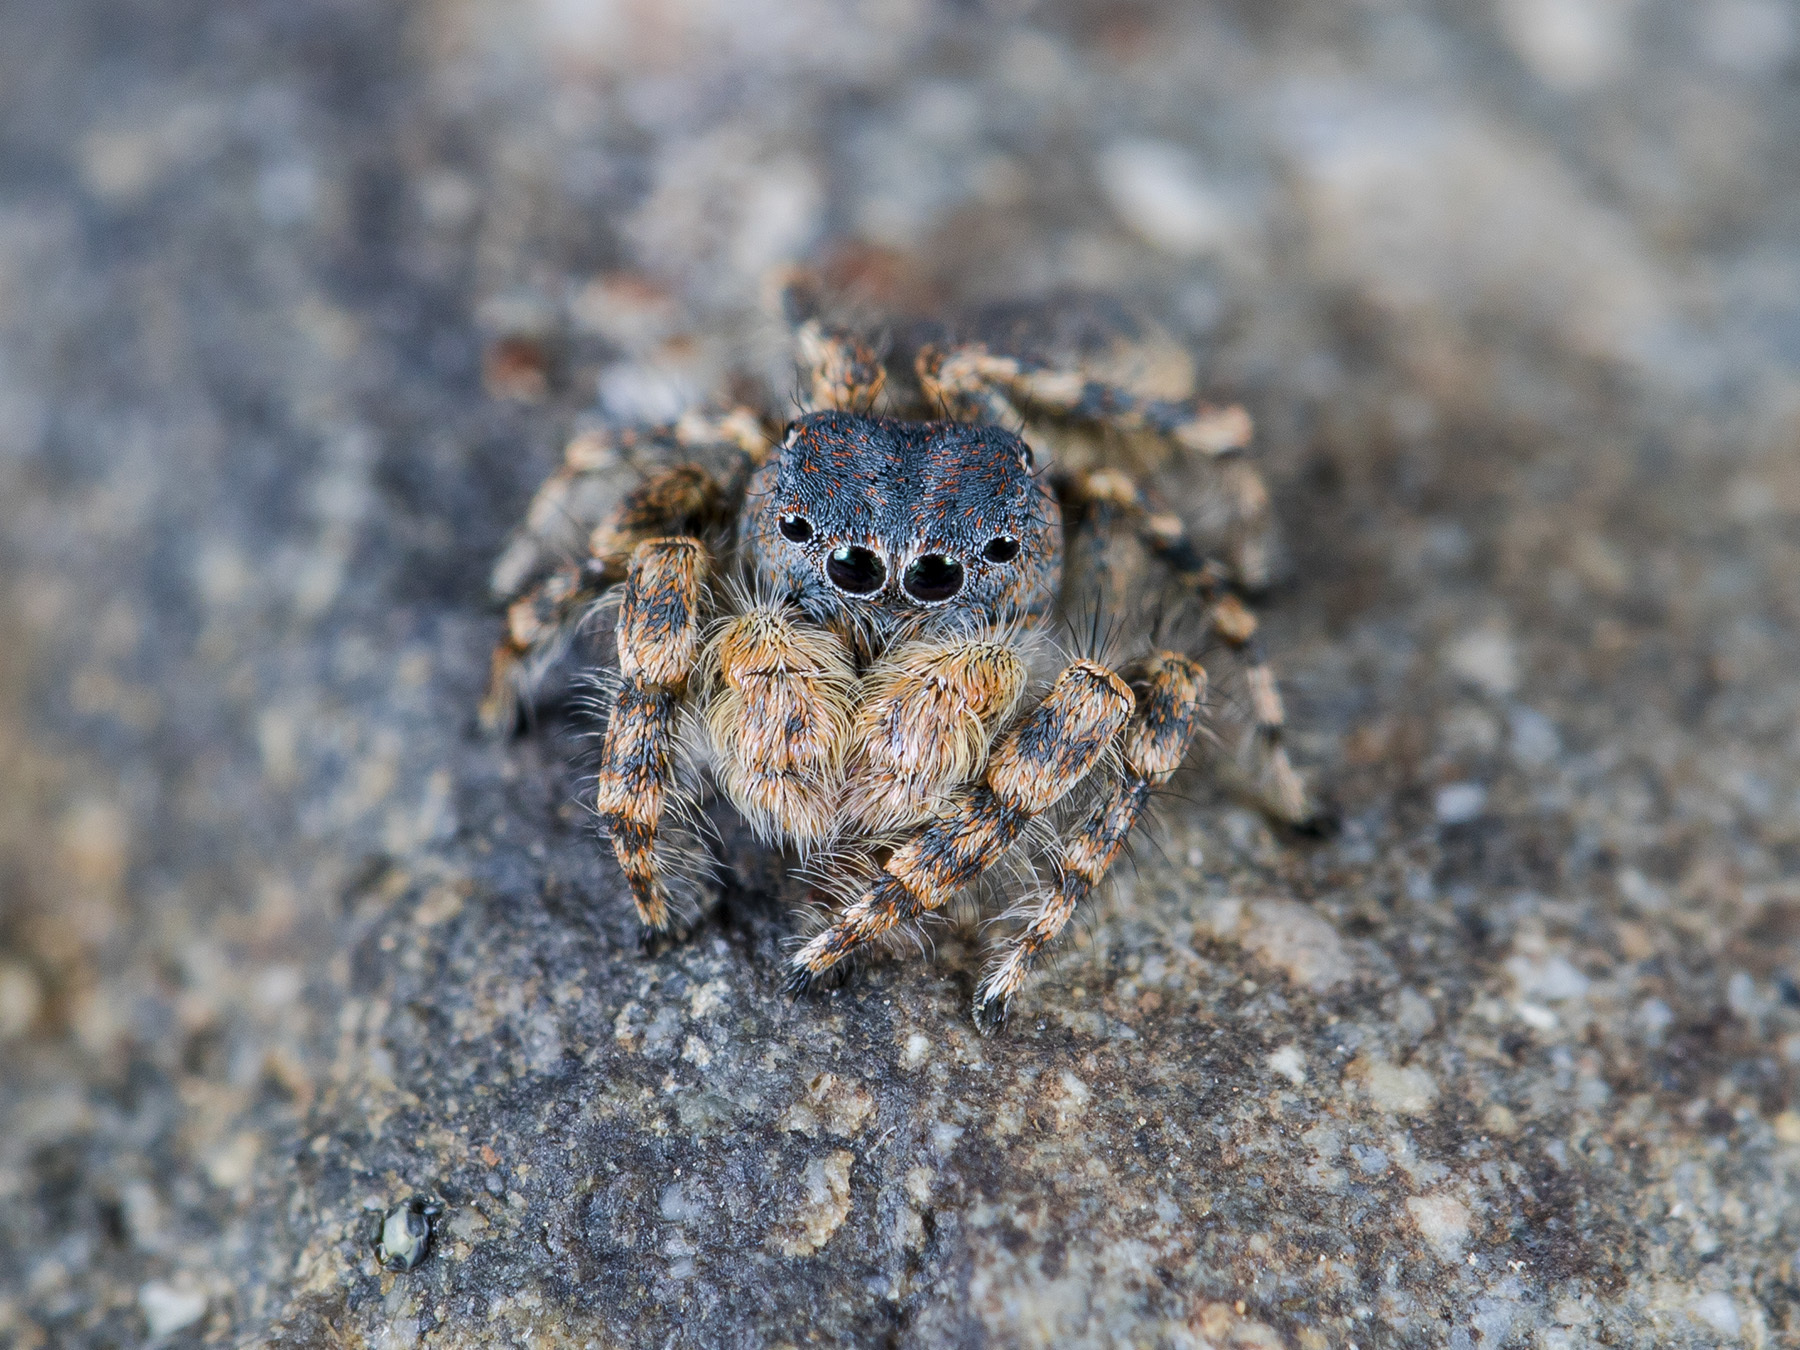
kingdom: Animalia
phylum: Arthropoda
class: Arachnida
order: Araneae
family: Salticidae
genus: Yllenus
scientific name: Yllenus zyuzini
